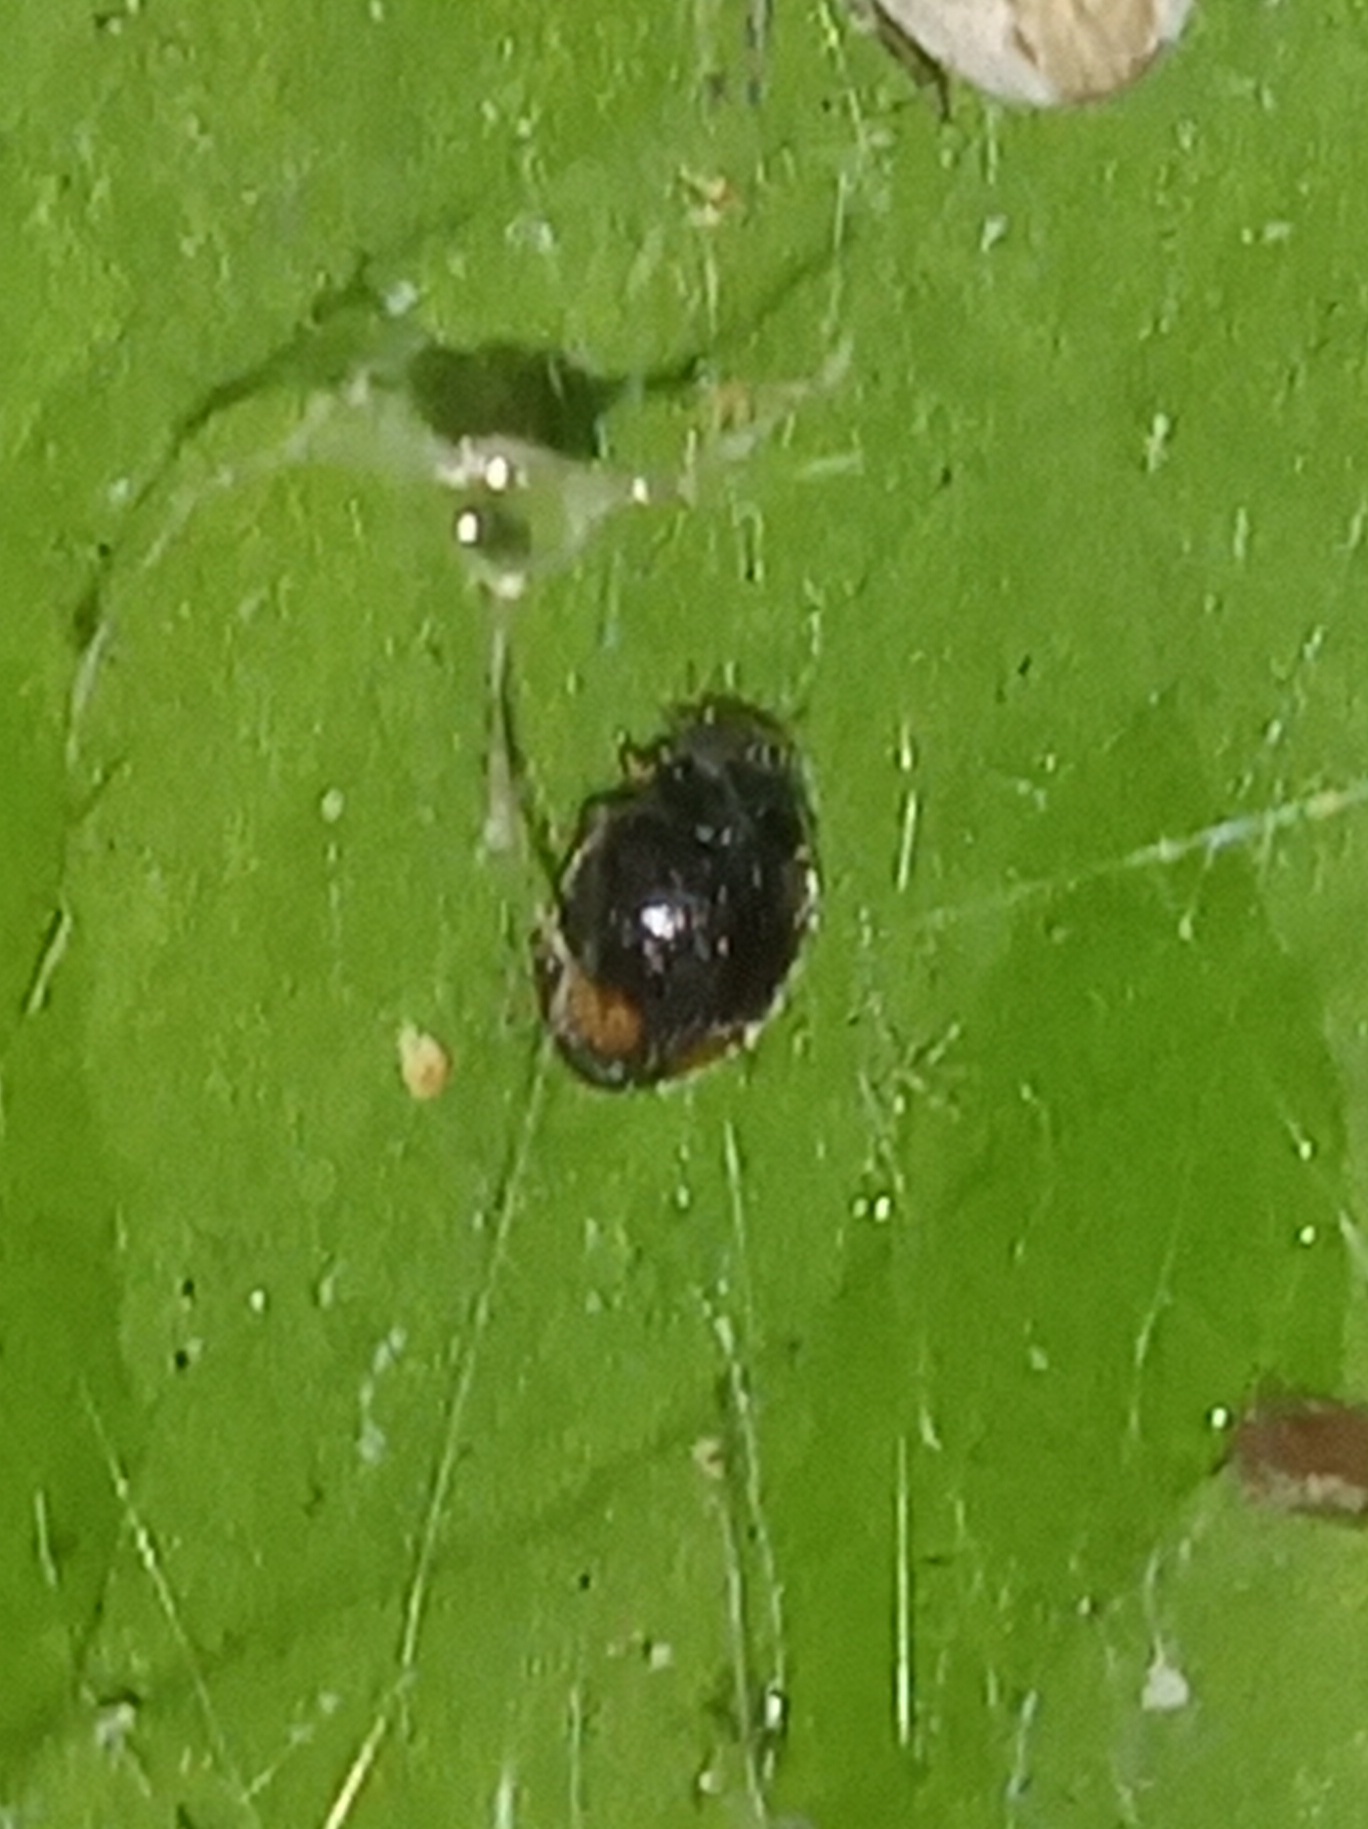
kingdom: Animalia
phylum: Arthropoda
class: Insecta
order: Coleoptera
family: Coccinellidae
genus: Nephus
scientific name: Nephus flavifrons
